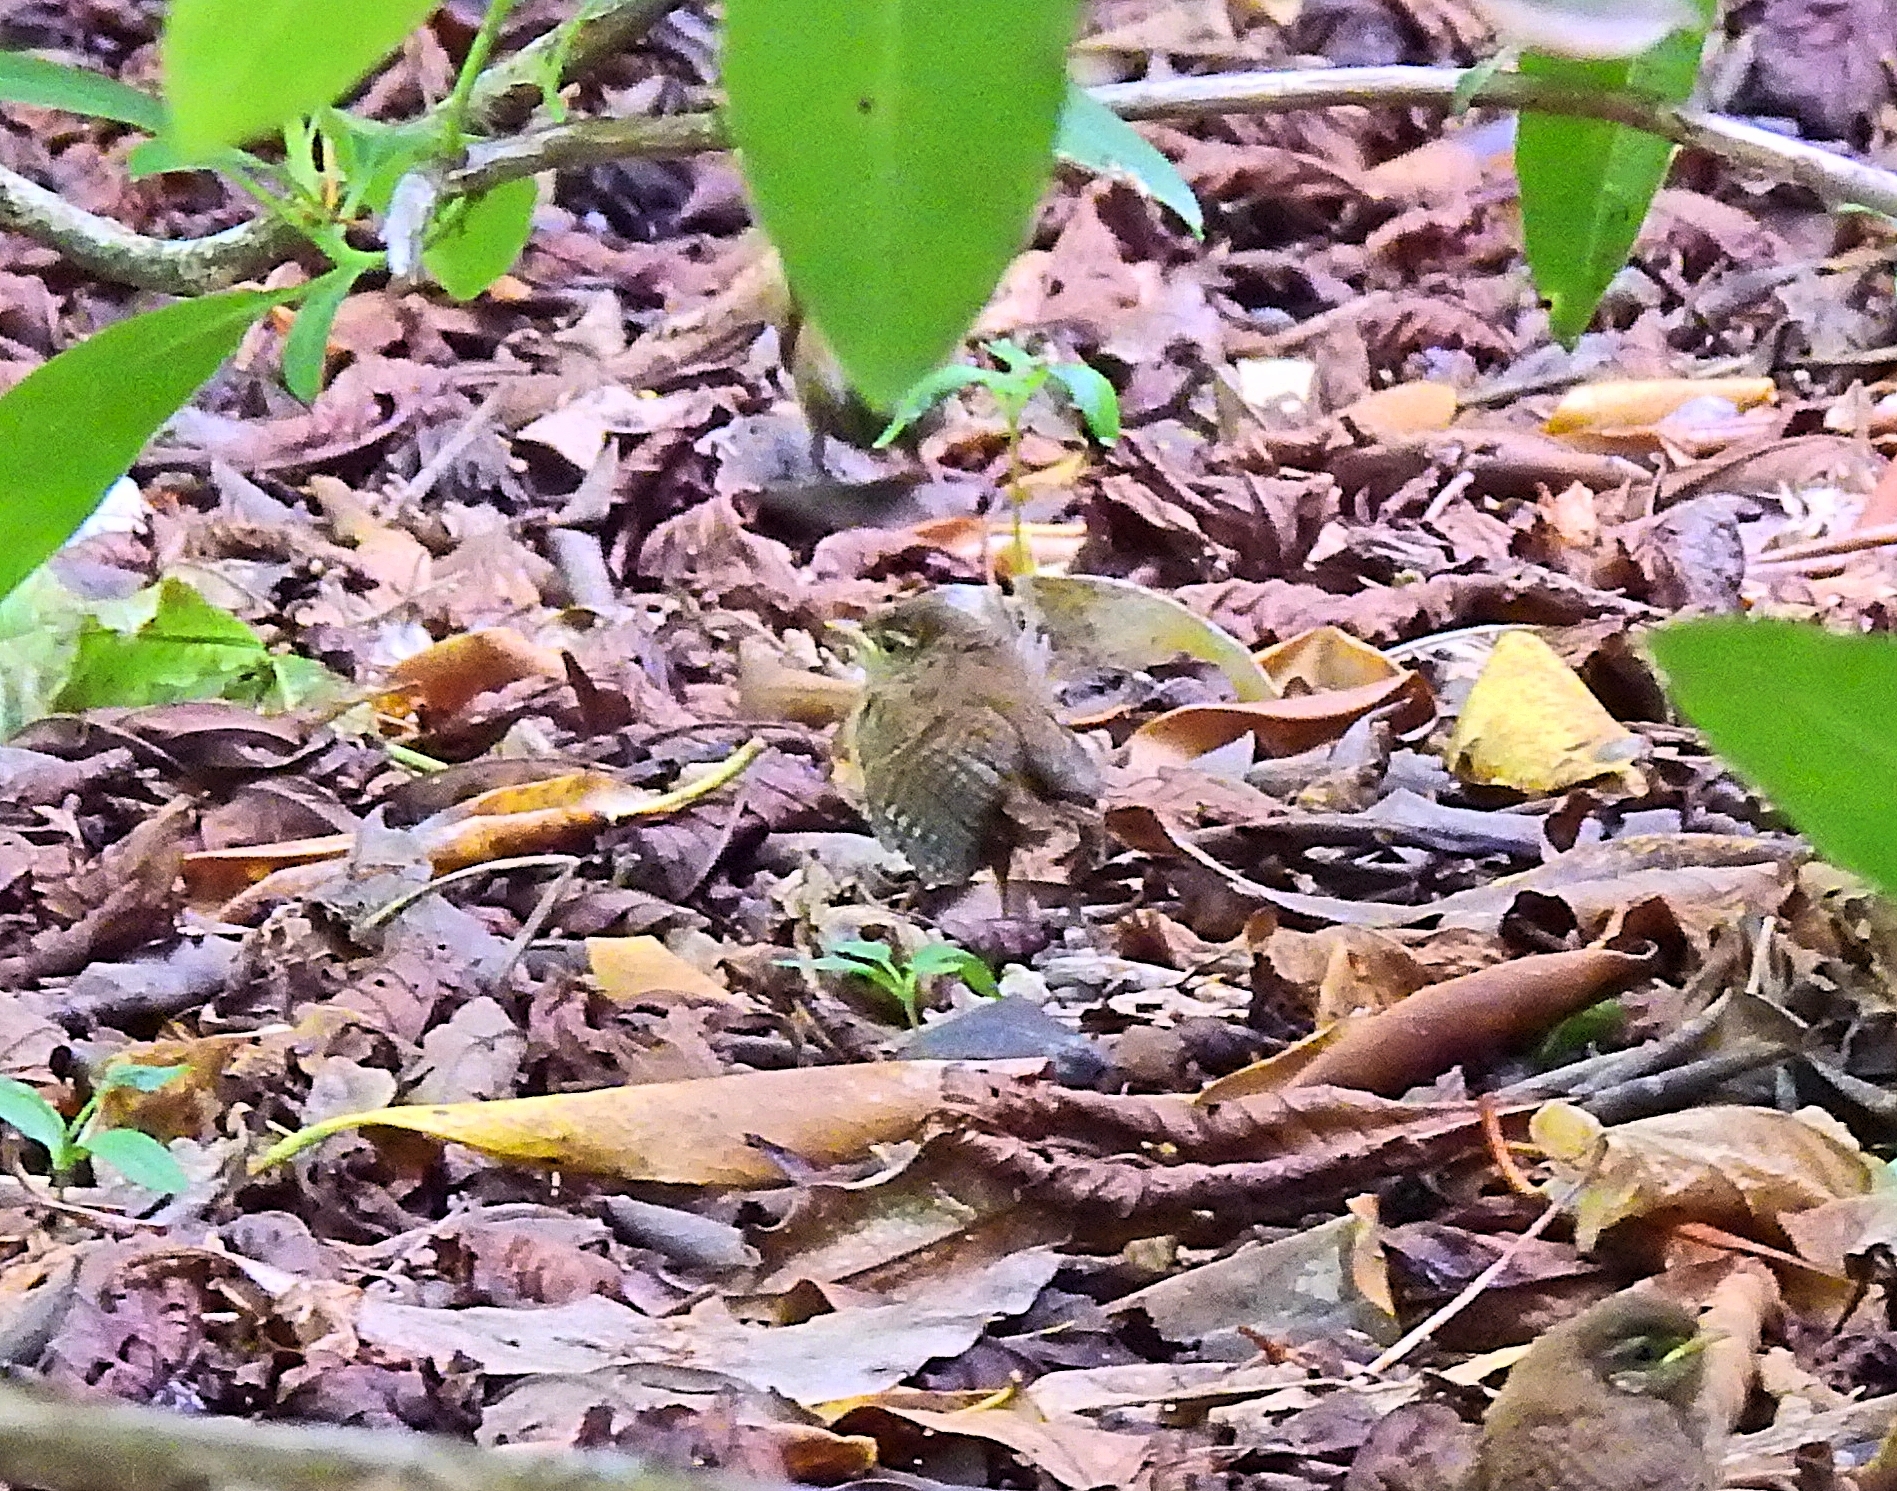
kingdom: Animalia
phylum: Chordata
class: Aves
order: Passeriformes
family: Troglodytidae
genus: Troglodytes
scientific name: Troglodytes troglodytes
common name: Eurasian wren
